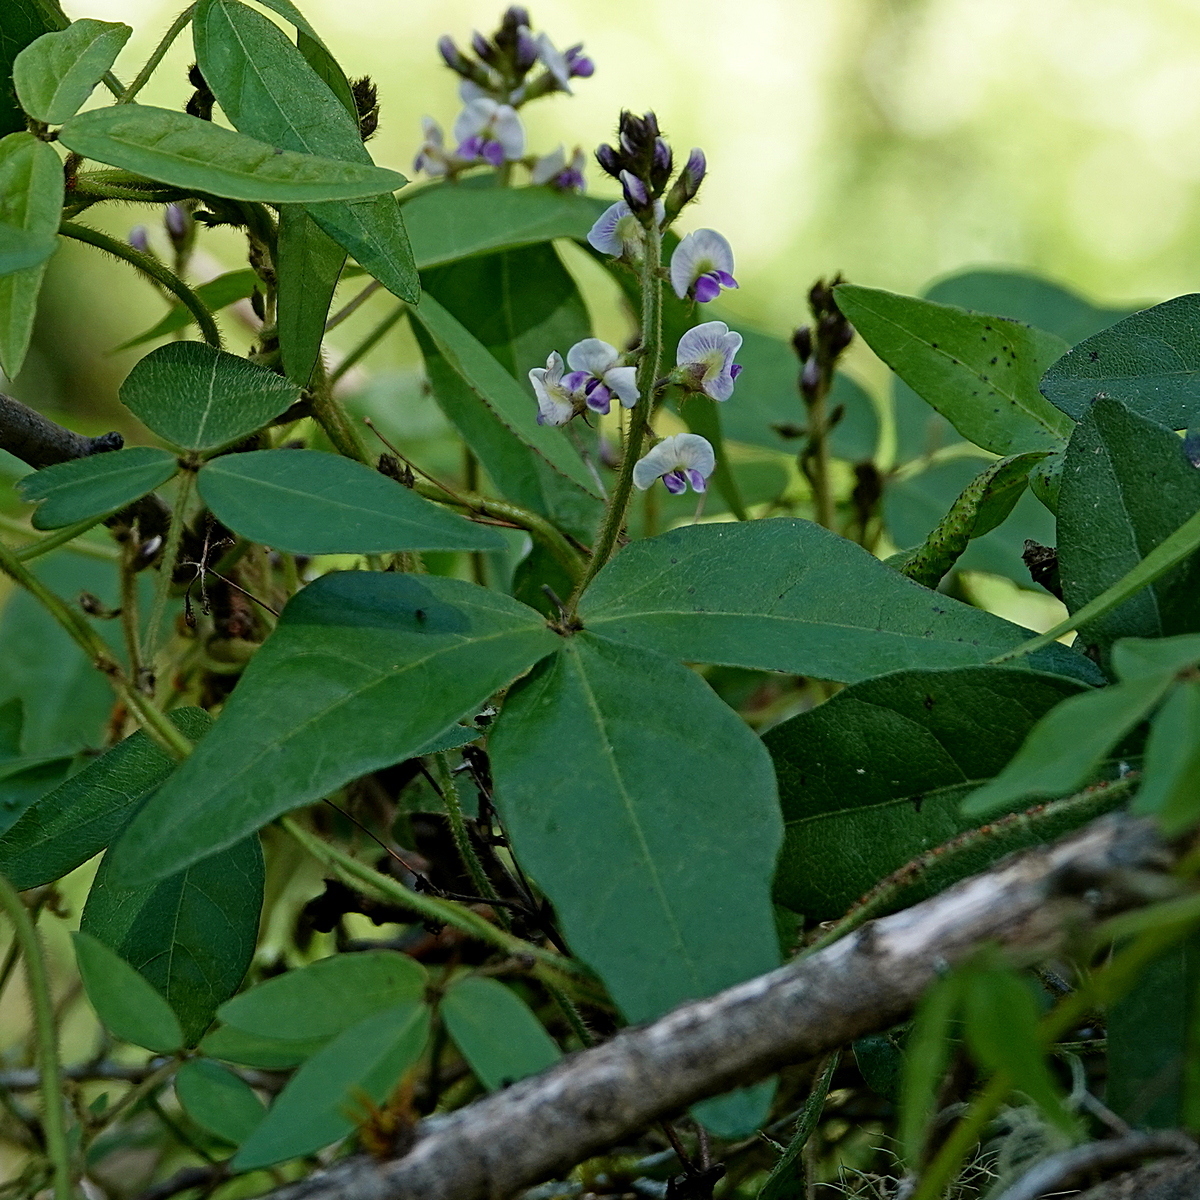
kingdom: Plantae
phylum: Tracheophyta
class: Magnoliopsida
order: Fabales
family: Fabaceae
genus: Glycine
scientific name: Glycine clandestina
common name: Twining glycine
